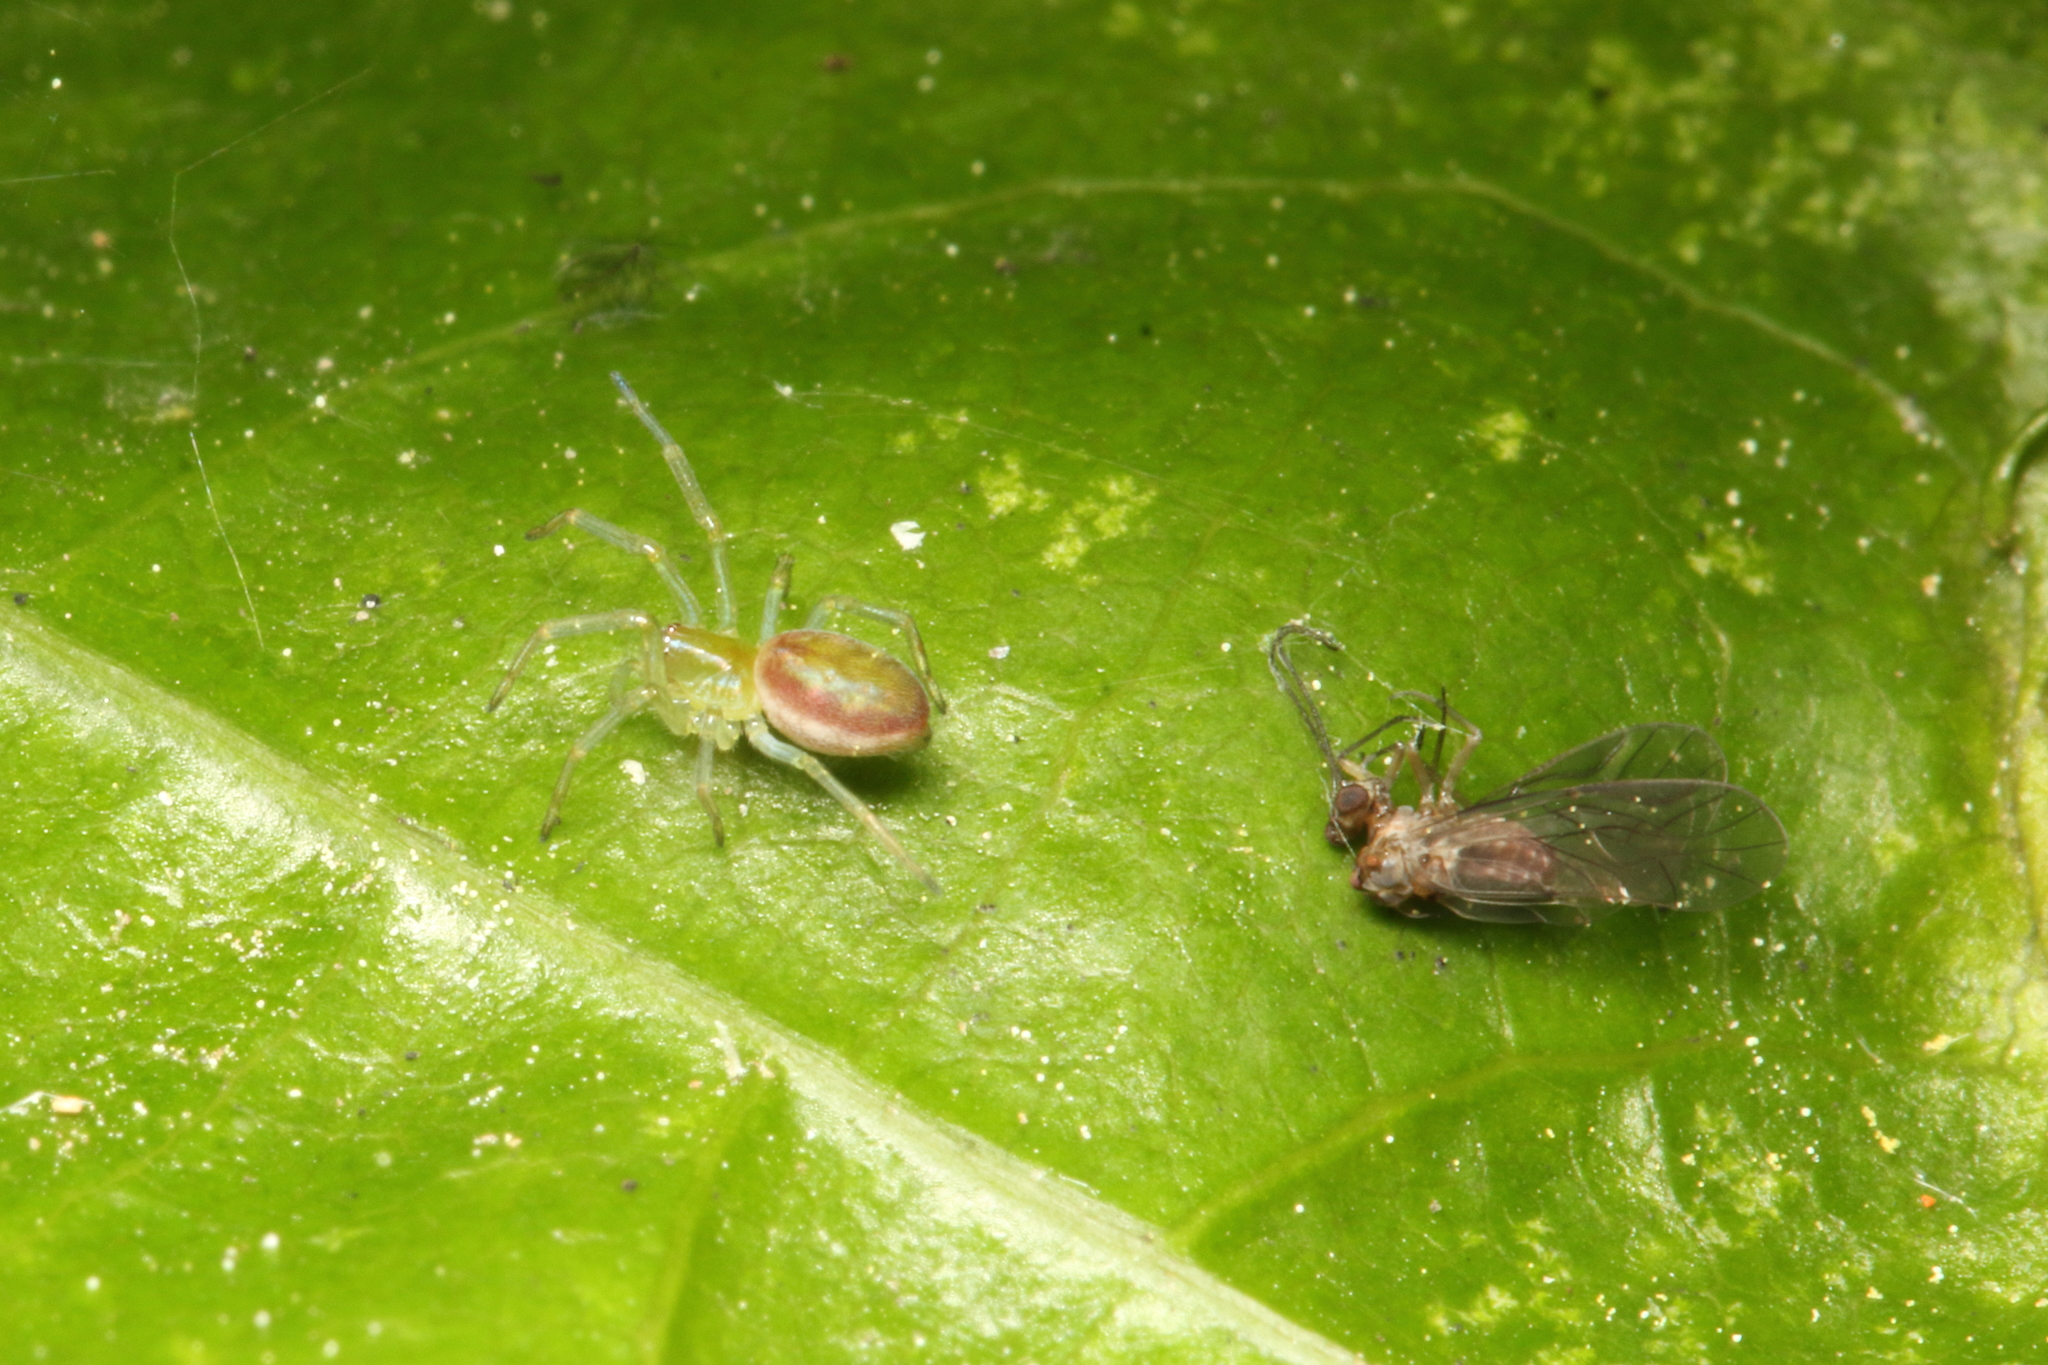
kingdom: Animalia
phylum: Arthropoda
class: Arachnida
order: Araneae
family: Dictynidae
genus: Paradictyna
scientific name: Paradictyna ilamia
